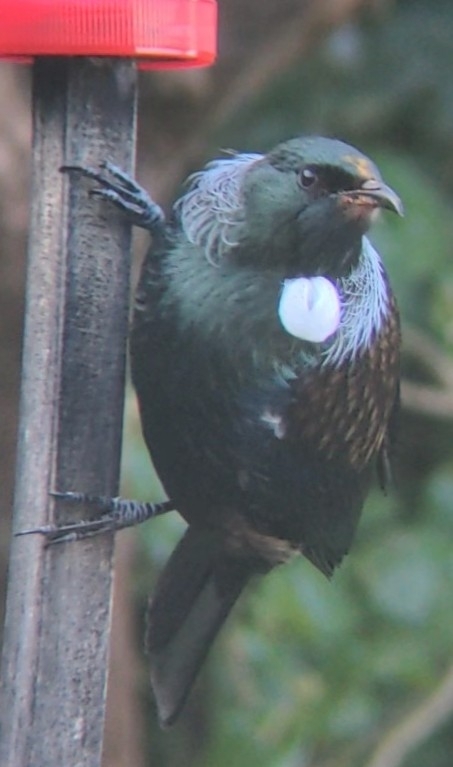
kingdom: Animalia
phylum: Chordata
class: Aves
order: Passeriformes
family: Meliphagidae
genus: Prosthemadera
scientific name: Prosthemadera novaeseelandiae
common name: Tui
